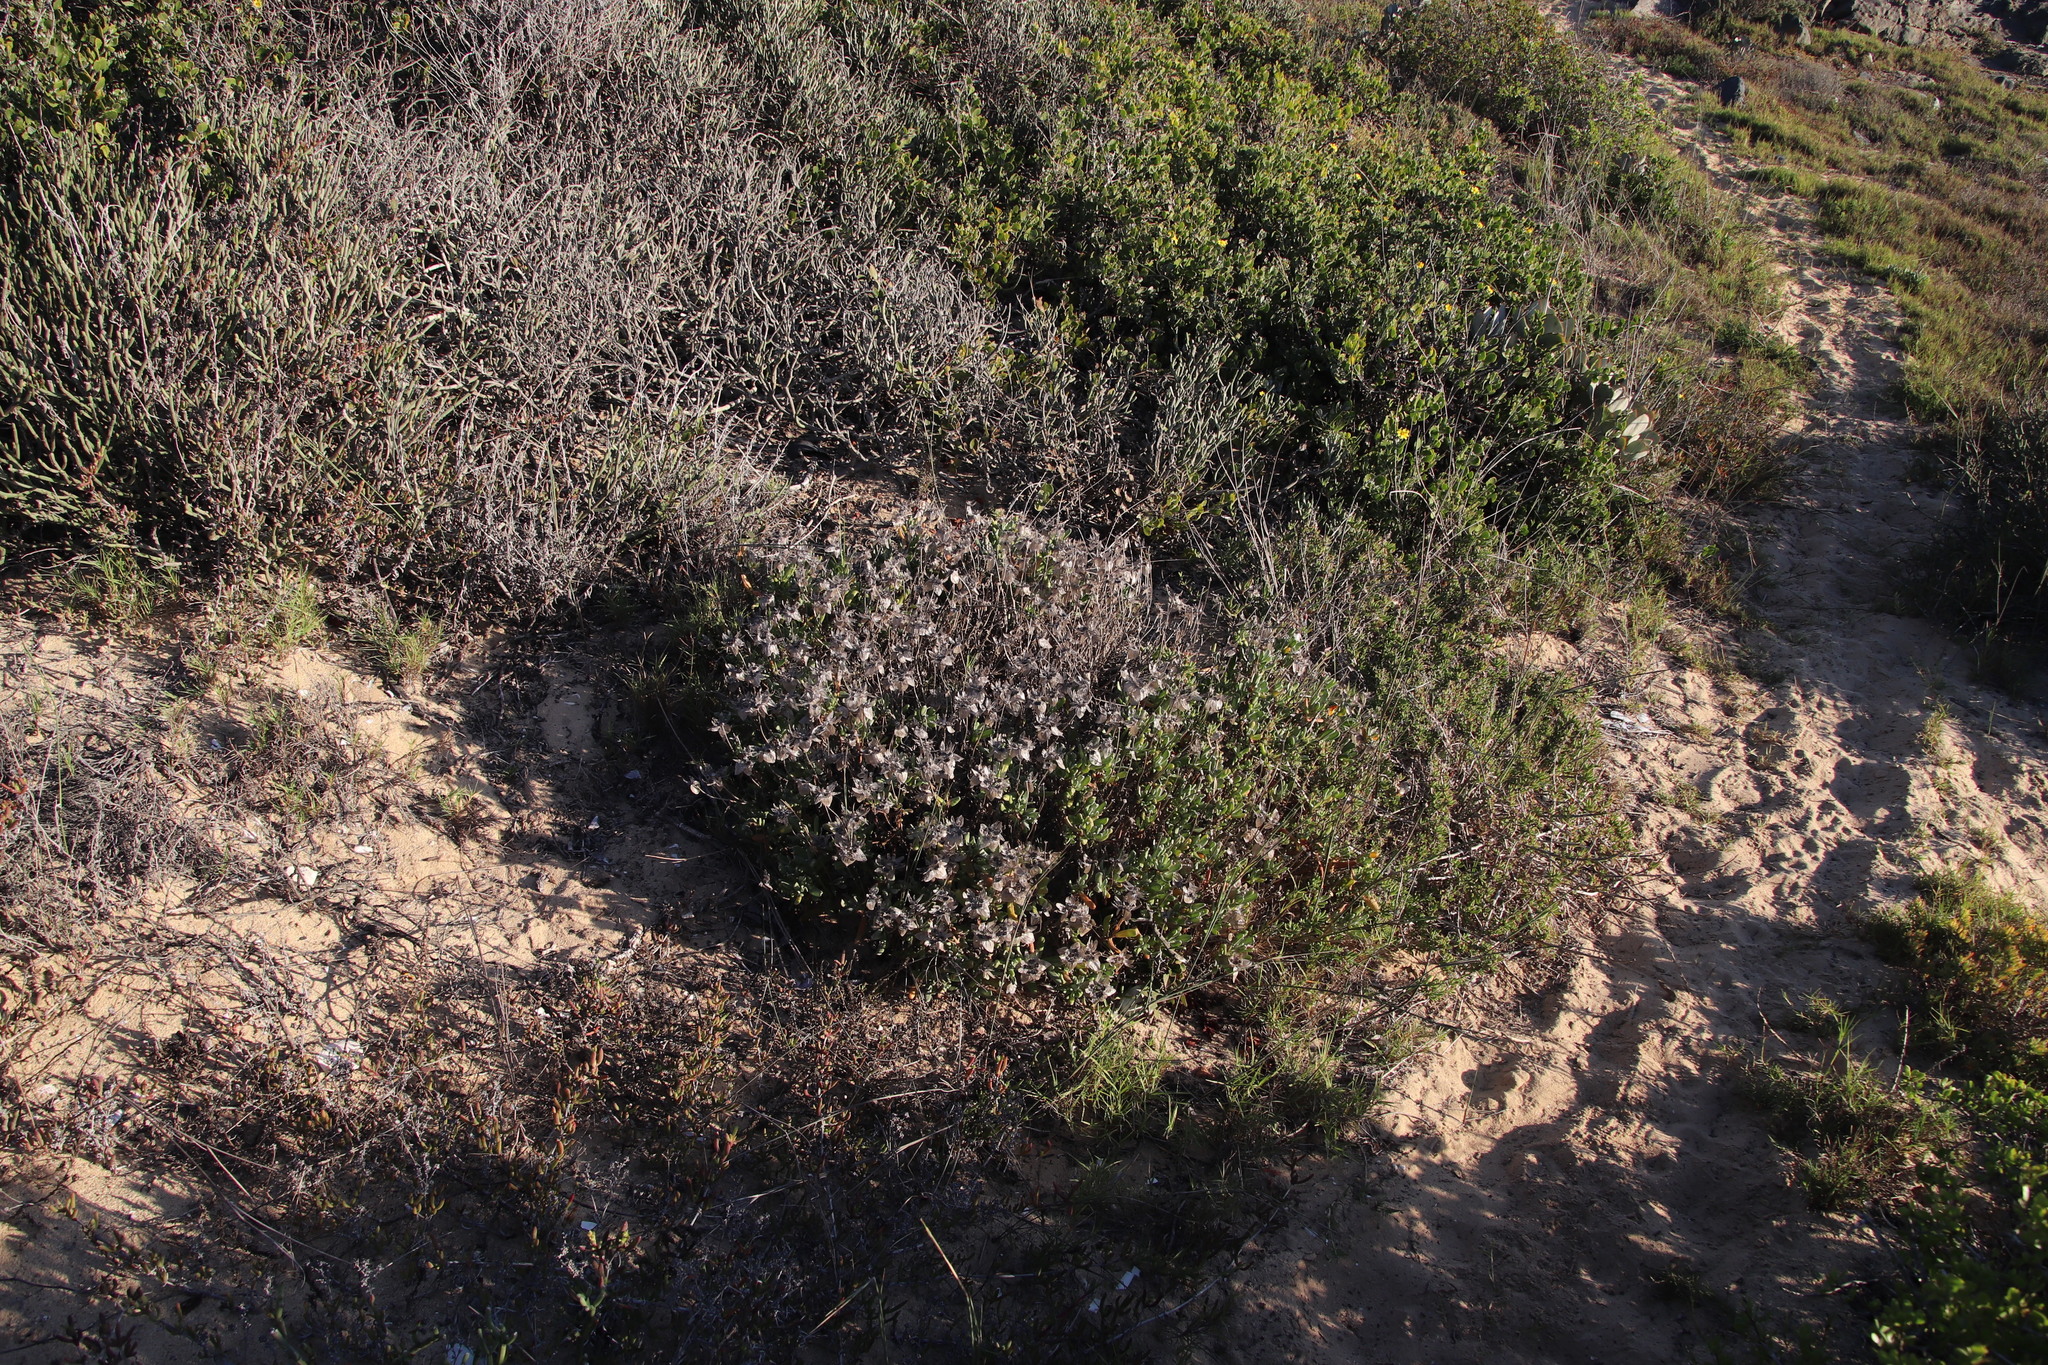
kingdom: Plantae
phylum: Tracheophyta
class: Magnoliopsida
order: Asterales
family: Asteraceae
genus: Didelta
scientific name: Didelta carnosa
